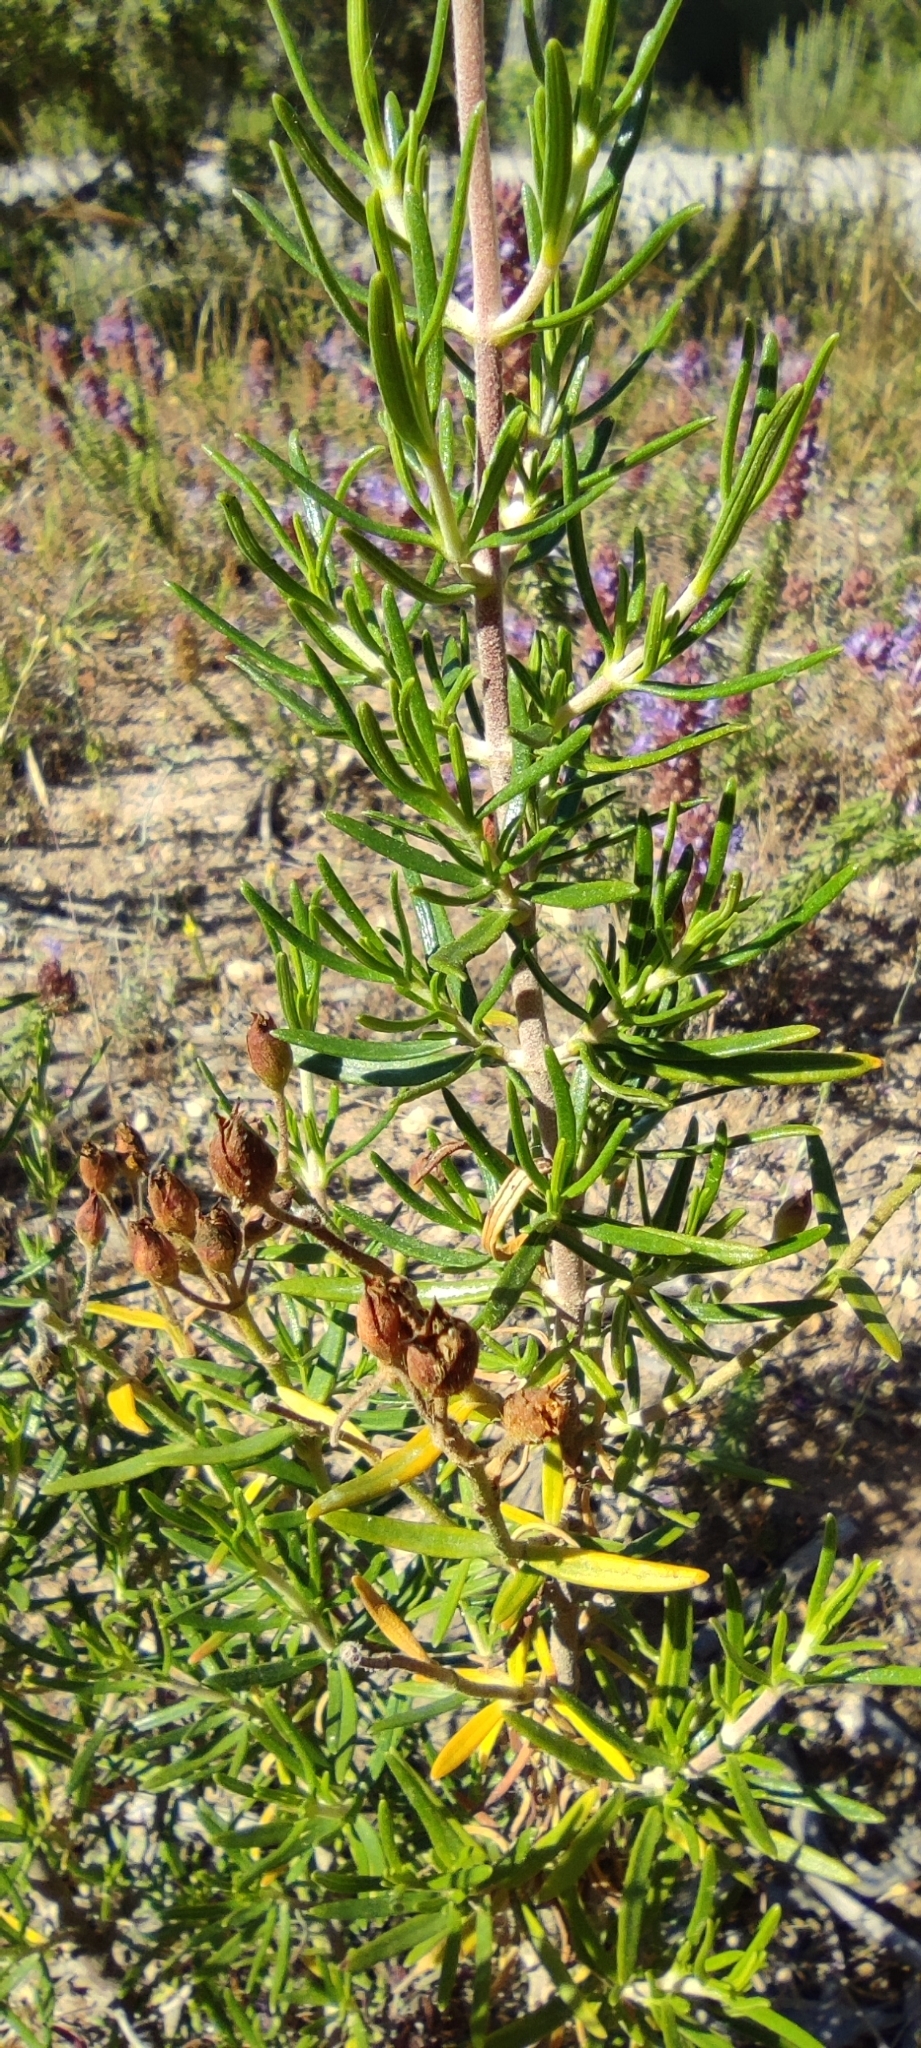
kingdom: Plantae
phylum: Tracheophyta
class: Magnoliopsida
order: Malvales
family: Cistaceae
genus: Cistus
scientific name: Cistus clusii
